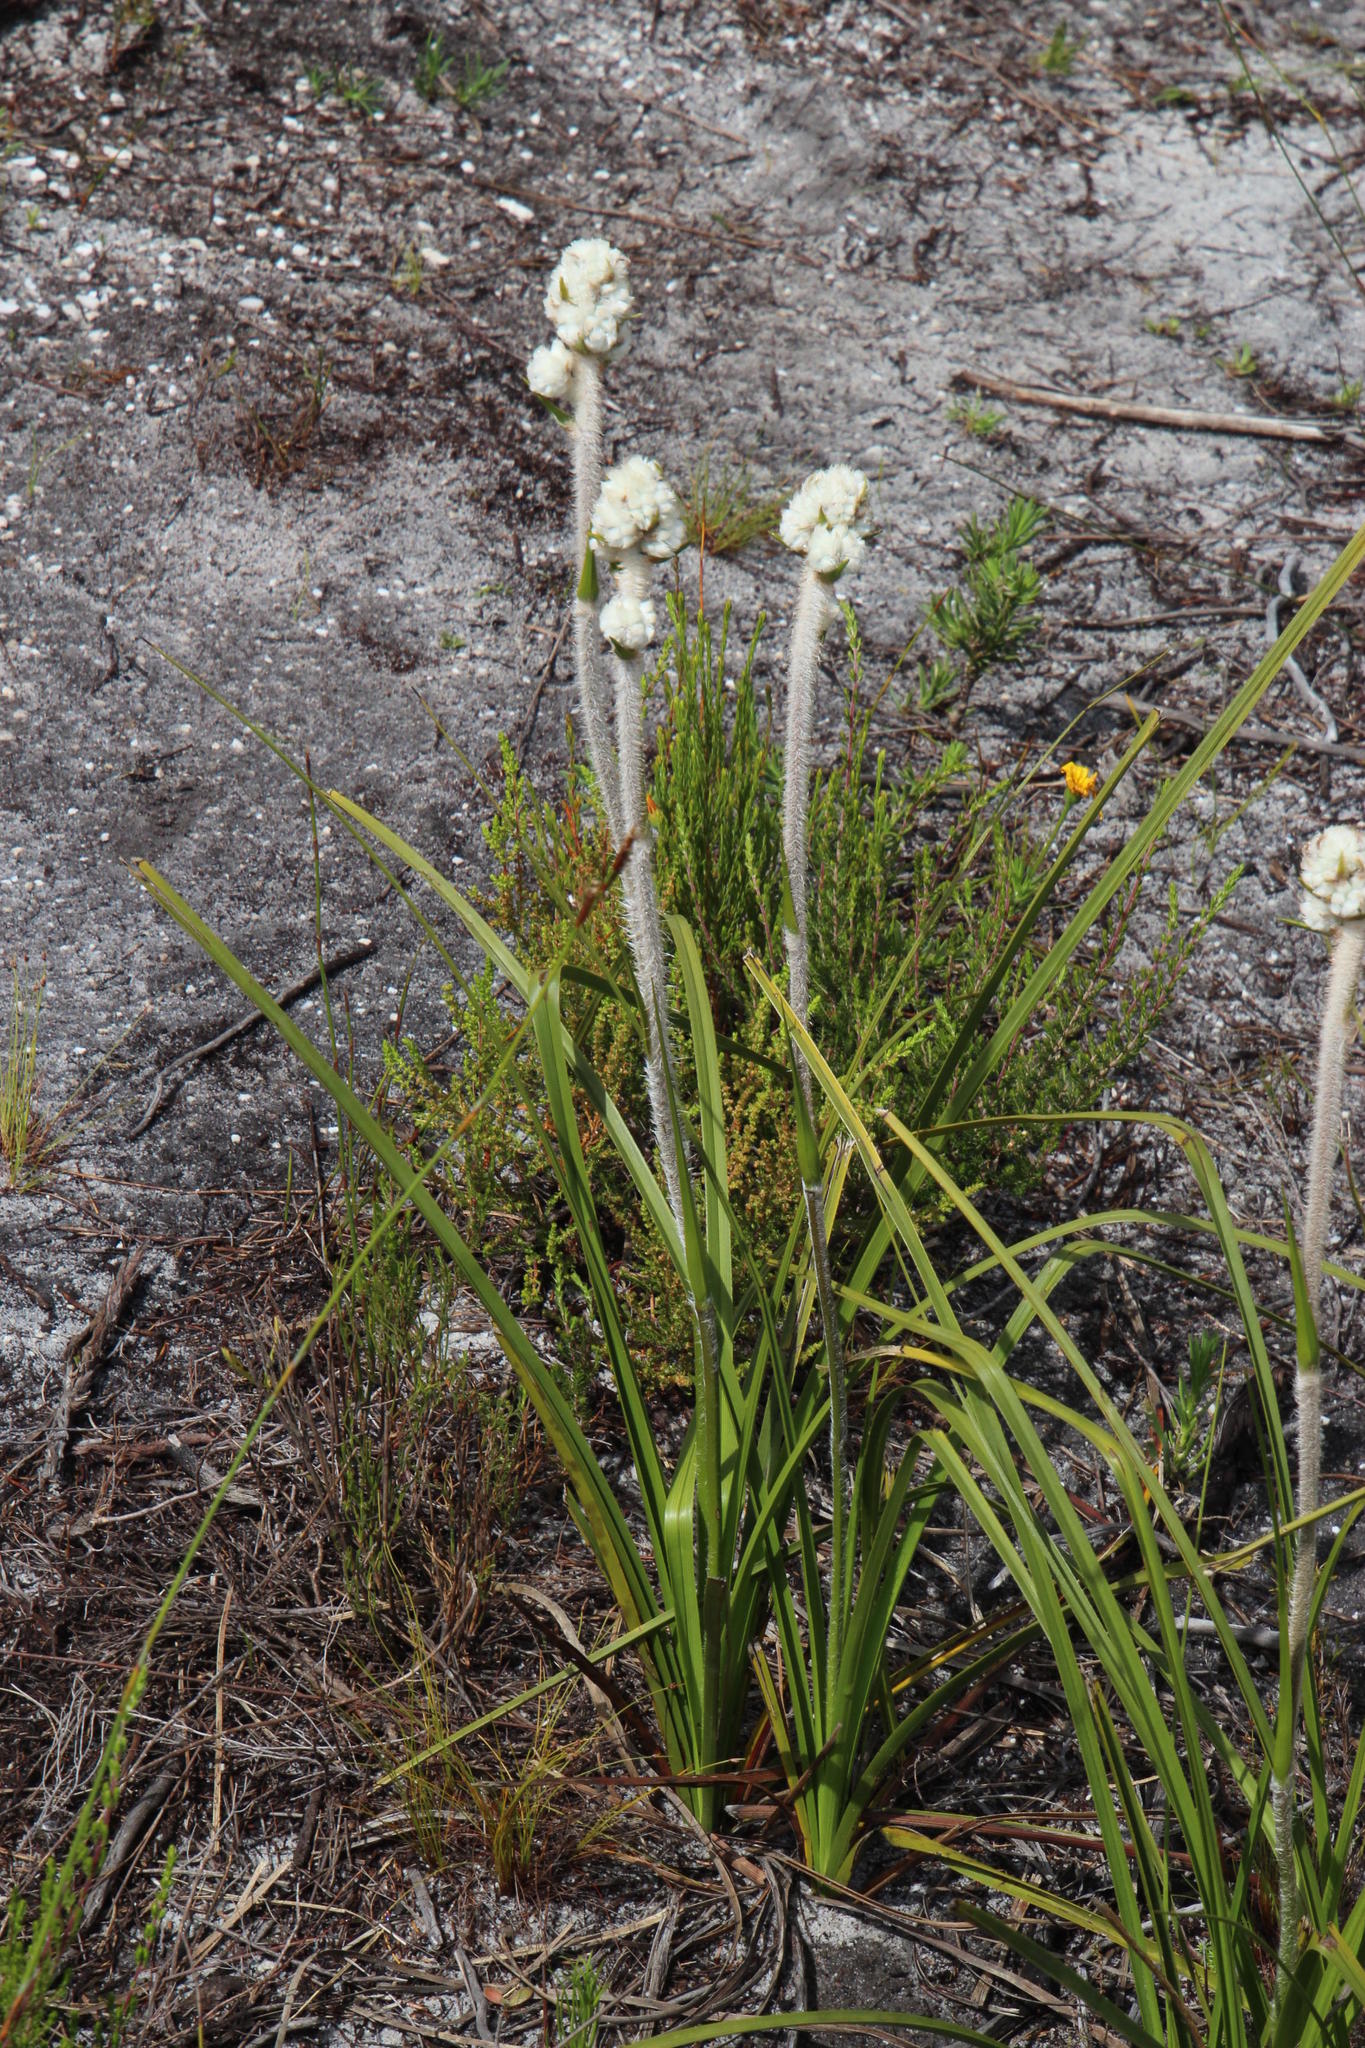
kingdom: Plantae
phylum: Tracheophyta
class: Liliopsida
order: Asparagales
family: Lanariaceae
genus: Lanaria
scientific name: Lanaria lanata
